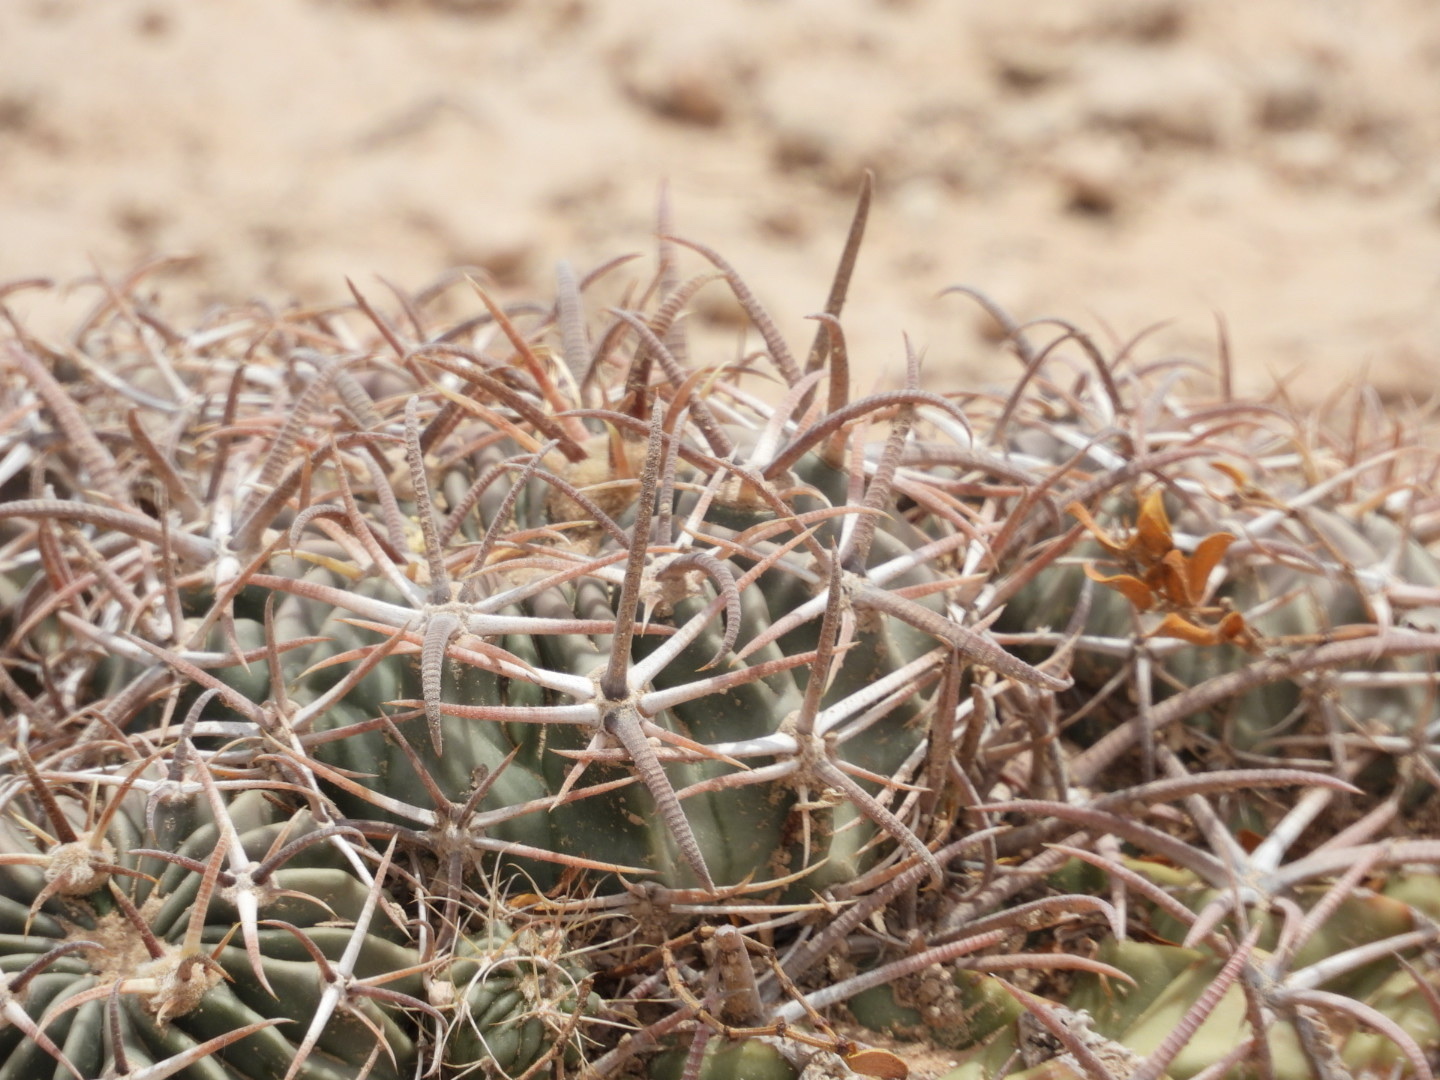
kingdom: Plantae
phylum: Tracheophyta
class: Magnoliopsida
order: Caryophyllales
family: Cactaceae
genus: Echinocactus
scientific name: Echinocactus texensis
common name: Devil's pincushion
